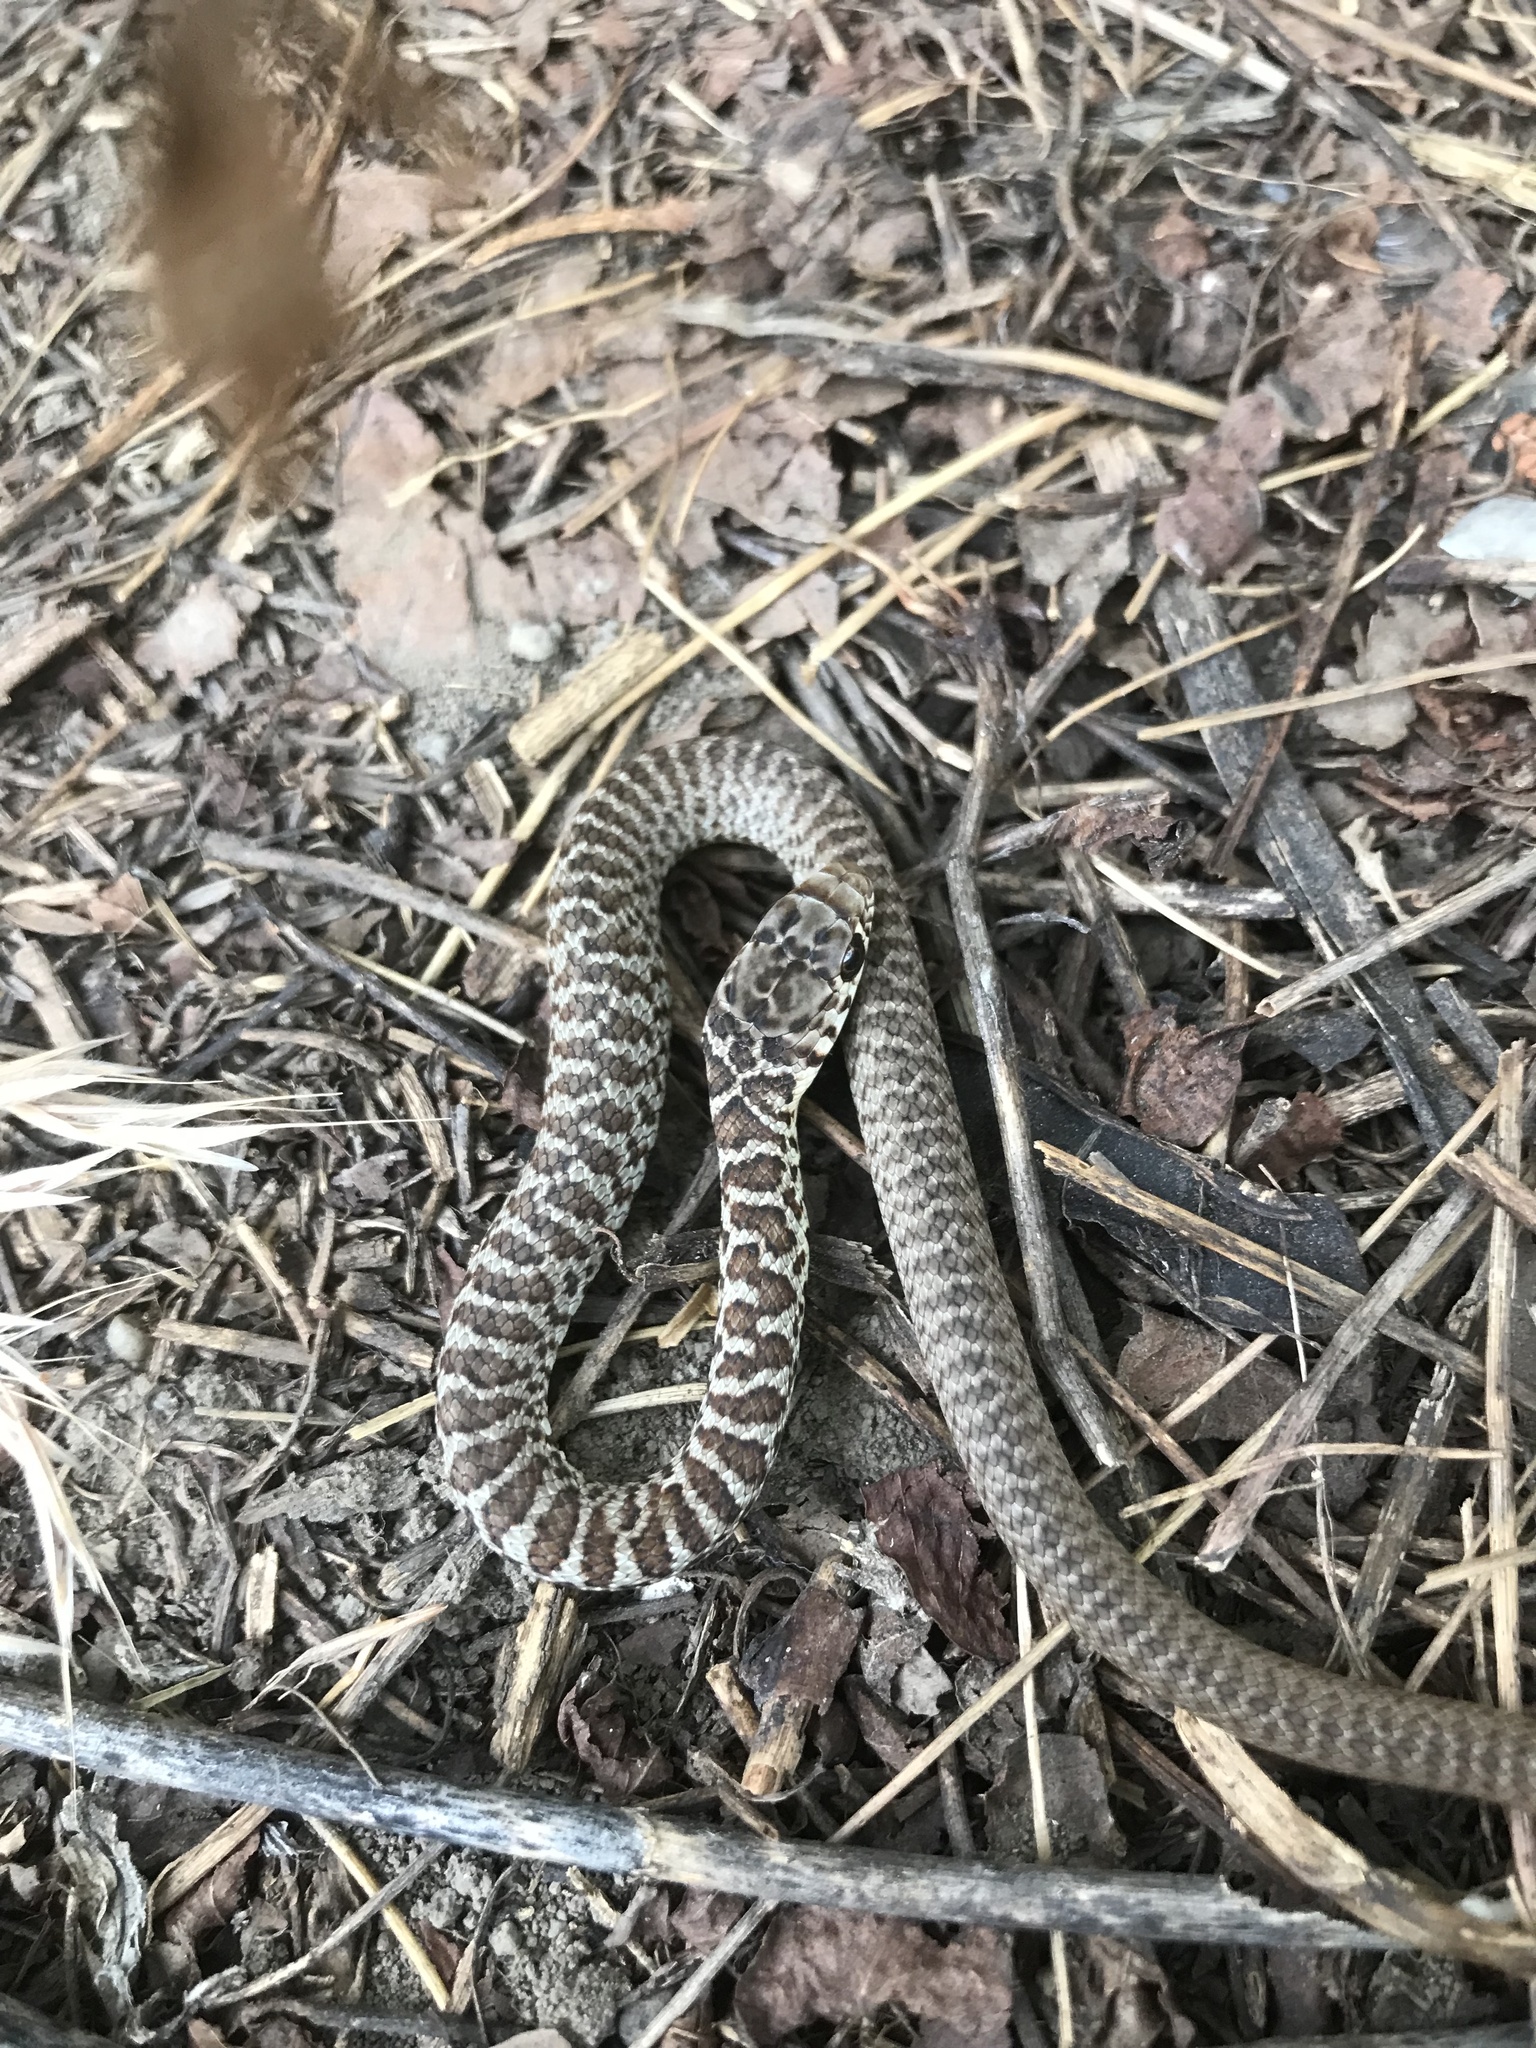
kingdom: Animalia
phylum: Chordata
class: Squamata
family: Colubridae
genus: Coluber
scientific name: Coluber constrictor
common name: Eastern racer
